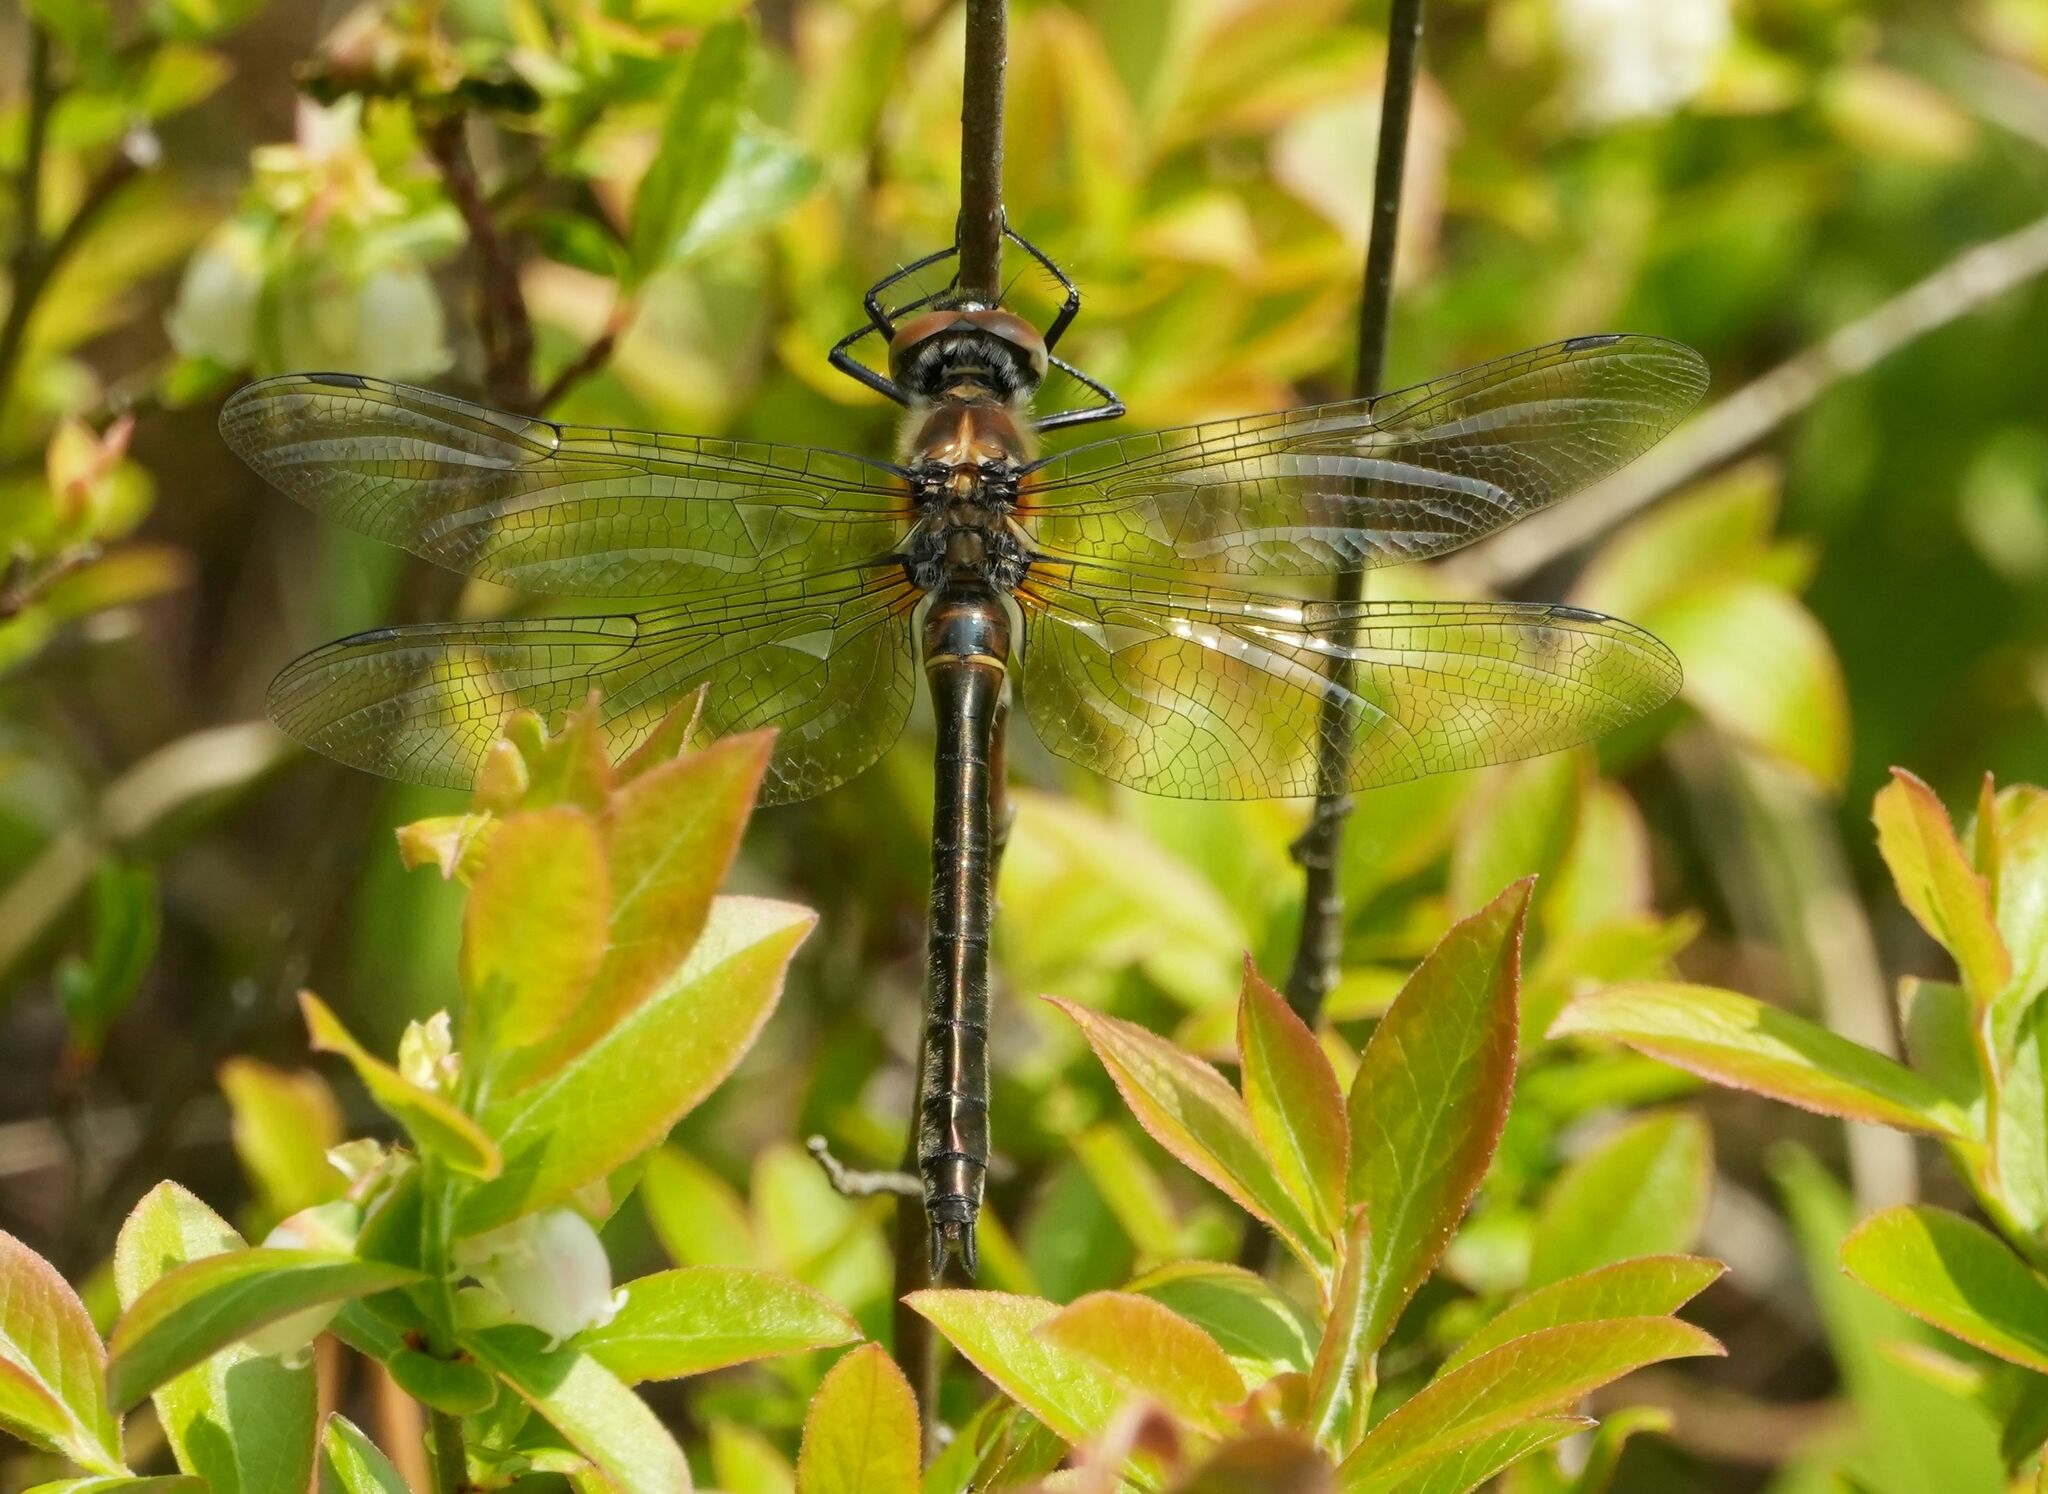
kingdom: Animalia
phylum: Arthropoda
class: Insecta
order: Odonata
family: Corduliidae
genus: Cordulia
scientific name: Cordulia shurtleffii
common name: American emerald
